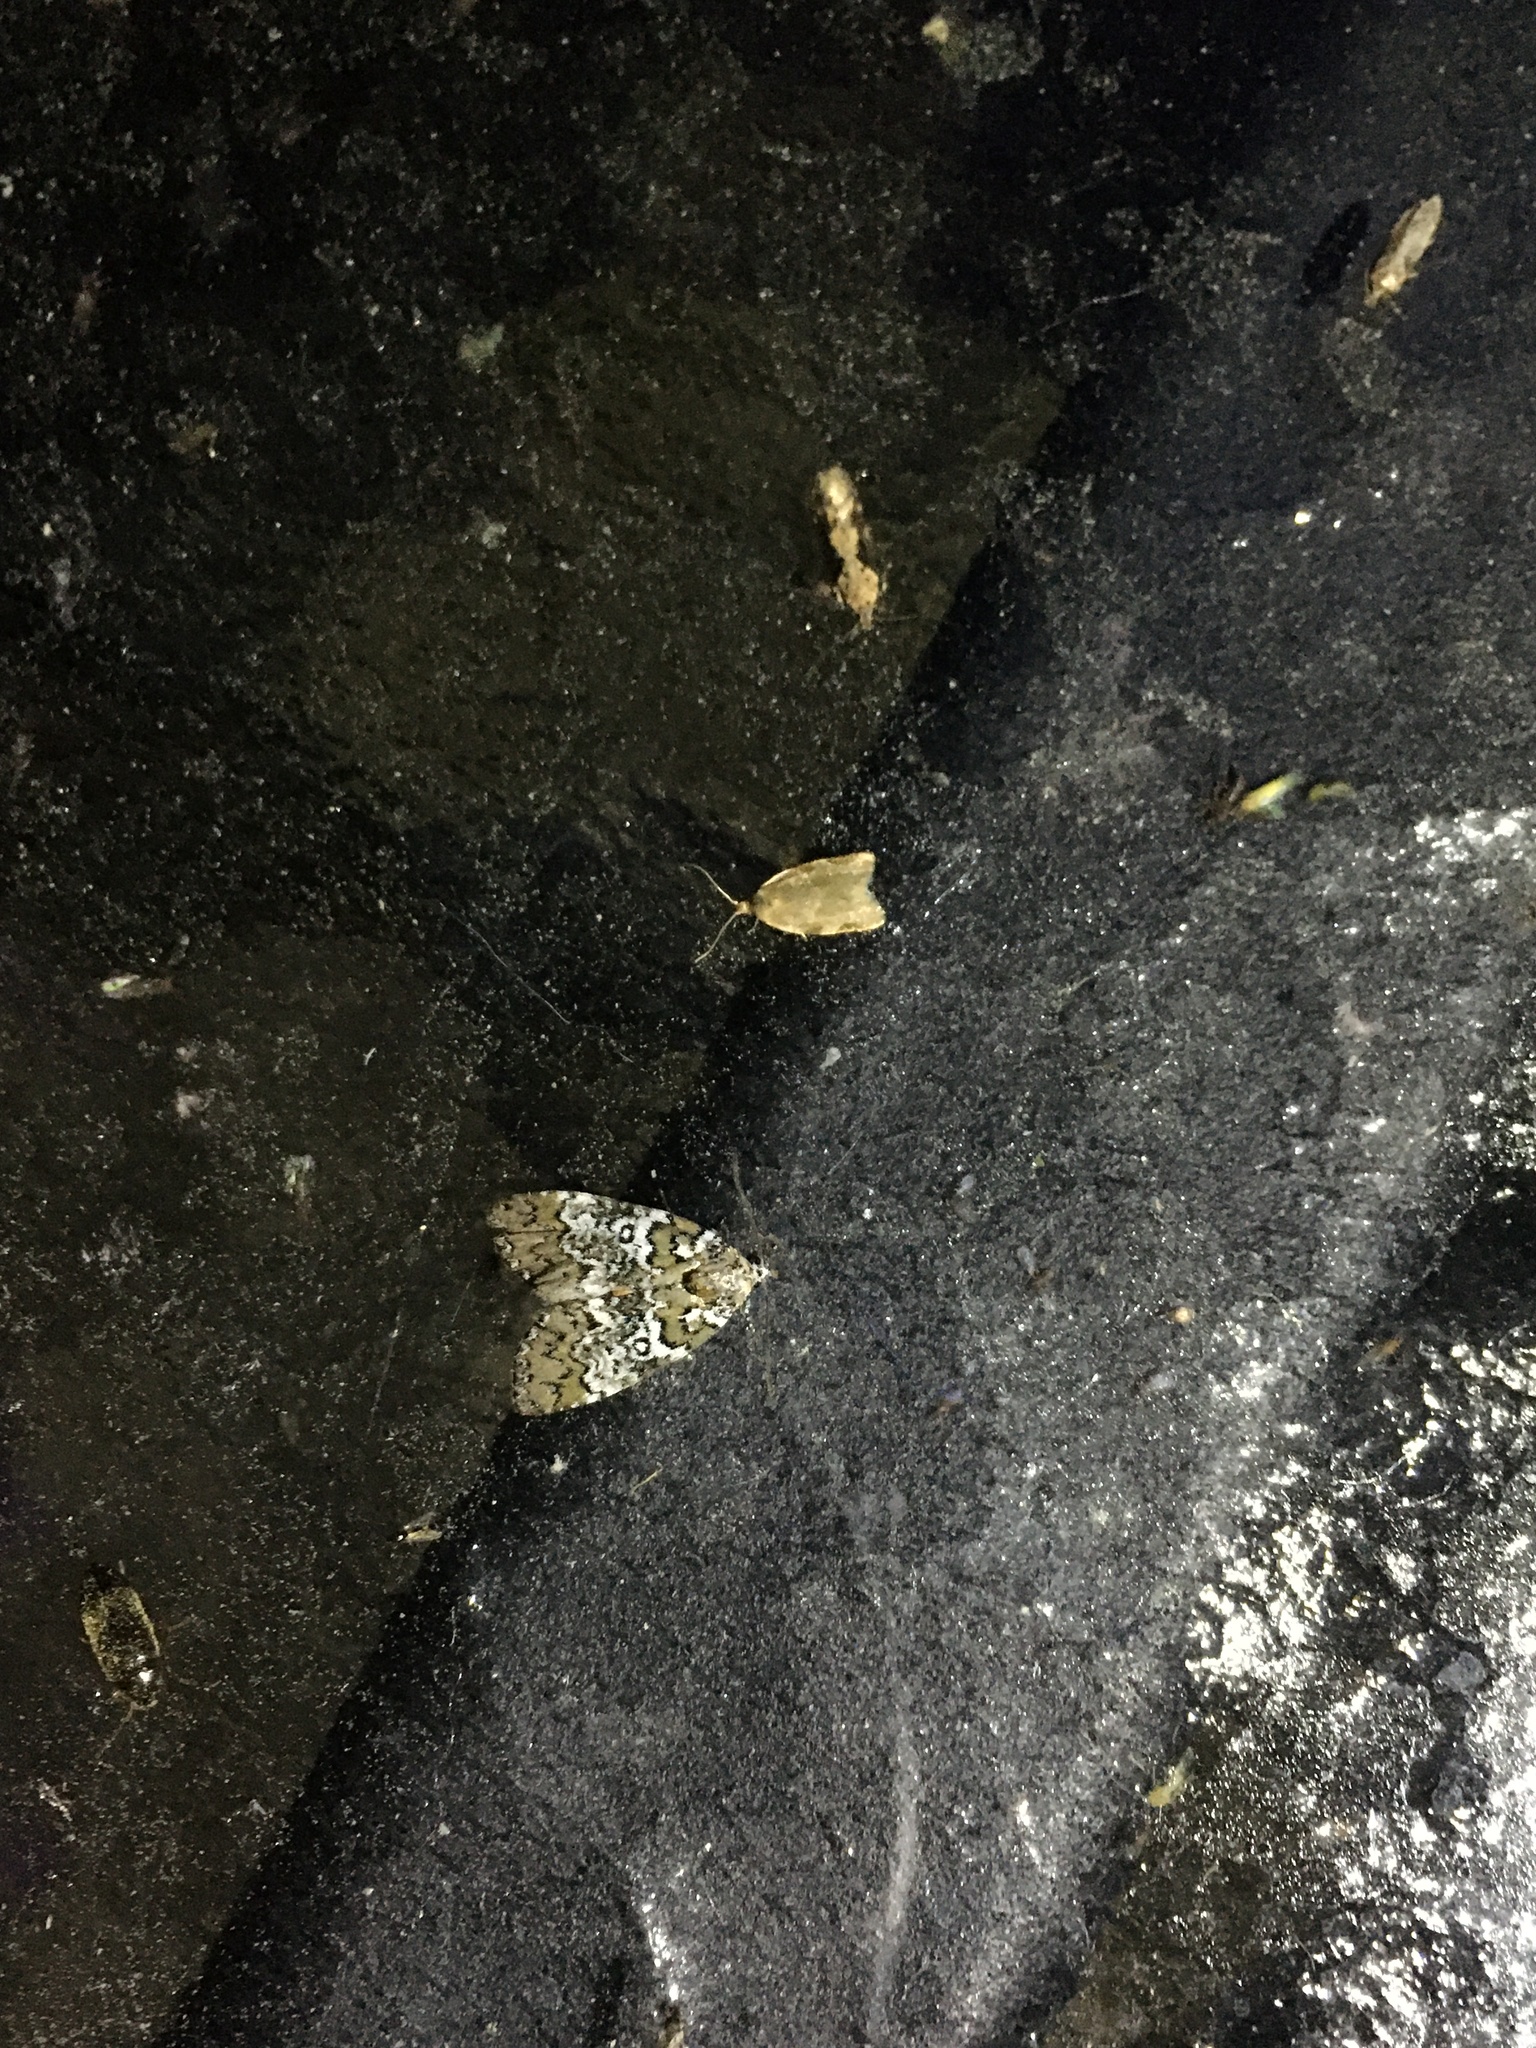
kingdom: Animalia
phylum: Arthropoda
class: Insecta
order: Lepidoptera
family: Noctuidae
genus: Cerma
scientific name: Cerma cora
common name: Bird dropping moth
